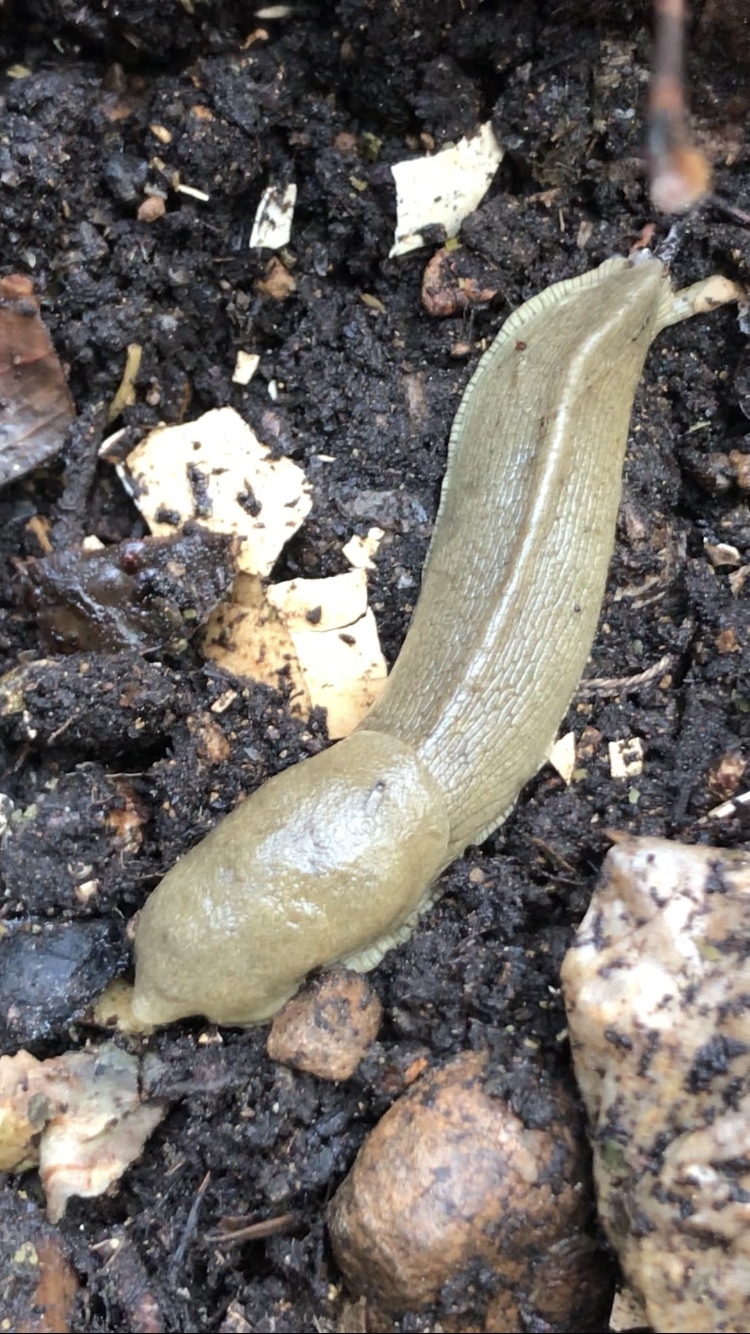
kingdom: Animalia
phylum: Mollusca
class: Gastropoda
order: Stylommatophora
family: Ariolimacidae
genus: Ariolimax
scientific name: Ariolimax columbianus
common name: Pacific banana slug
